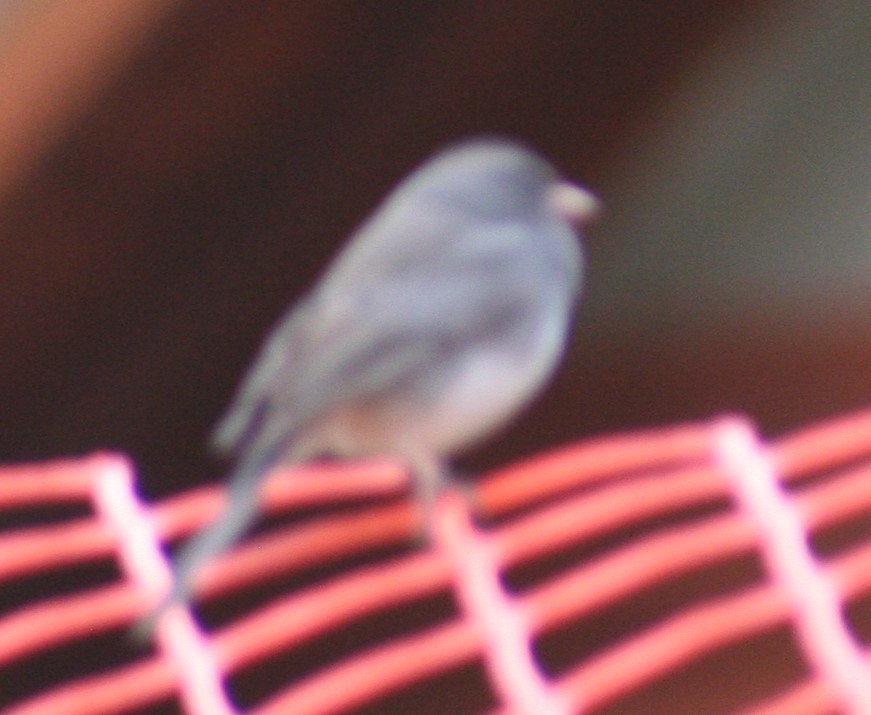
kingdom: Animalia
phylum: Chordata
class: Aves
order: Passeriformes
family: Passerellidae
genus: Junco
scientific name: Junco hyemalis
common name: Dark-eyed junco
